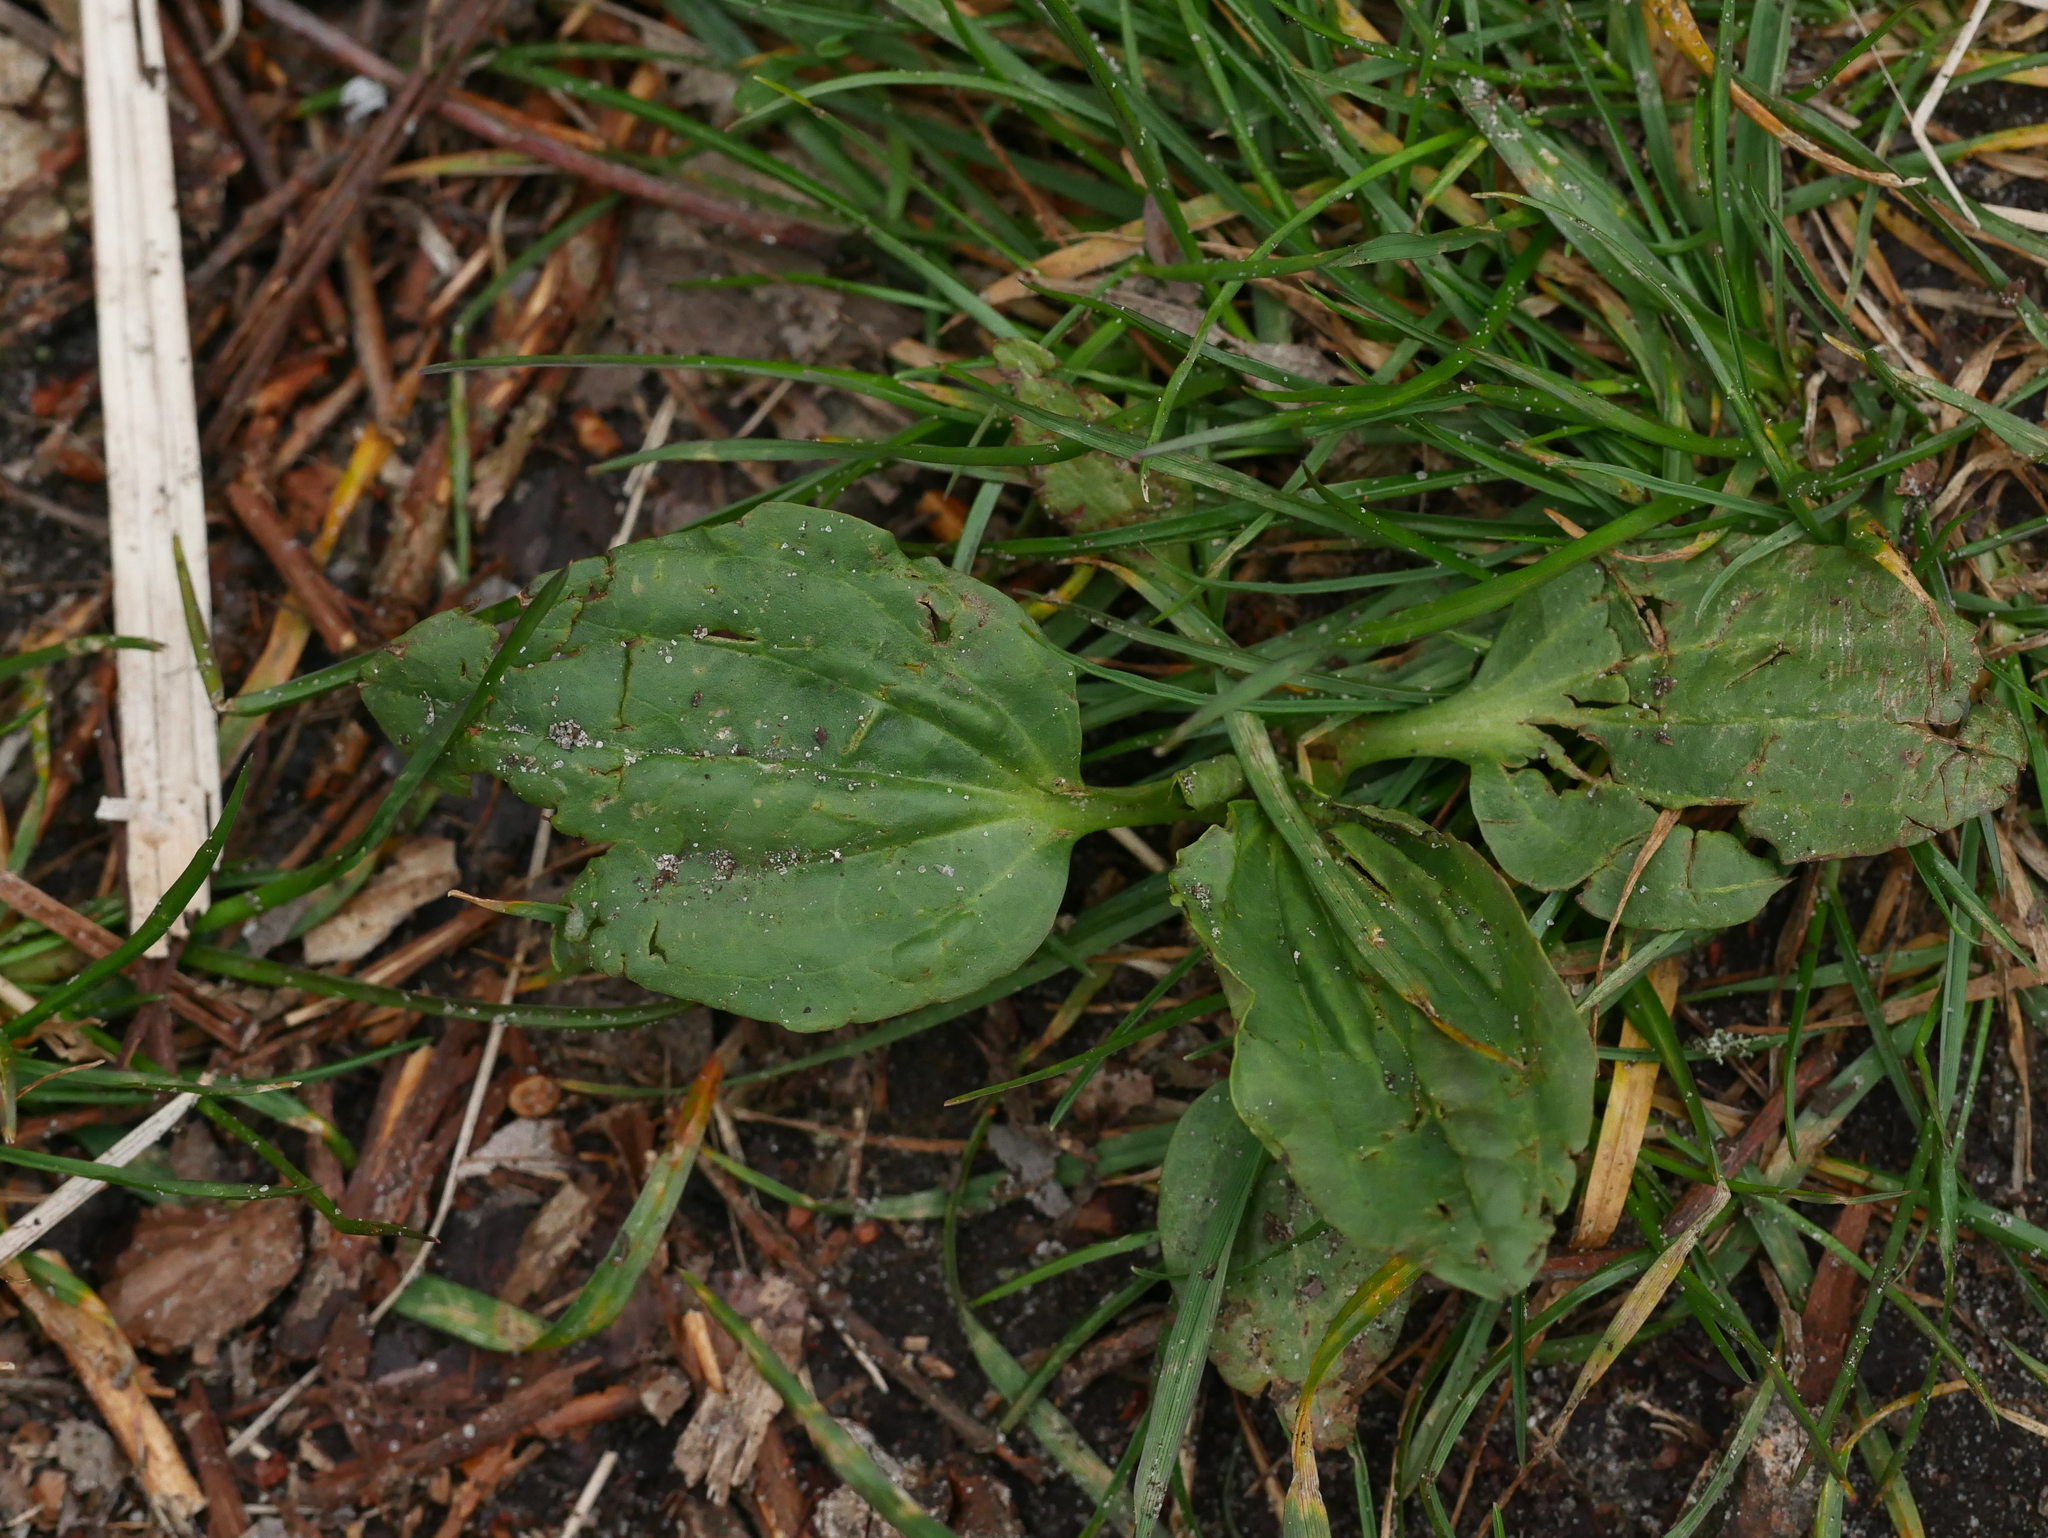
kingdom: Plantae
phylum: Tracheophyta
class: Magnoliopsida
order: Lamiales
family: Plantaginaceae
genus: Plantago
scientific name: Plantago major
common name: Common plantain
